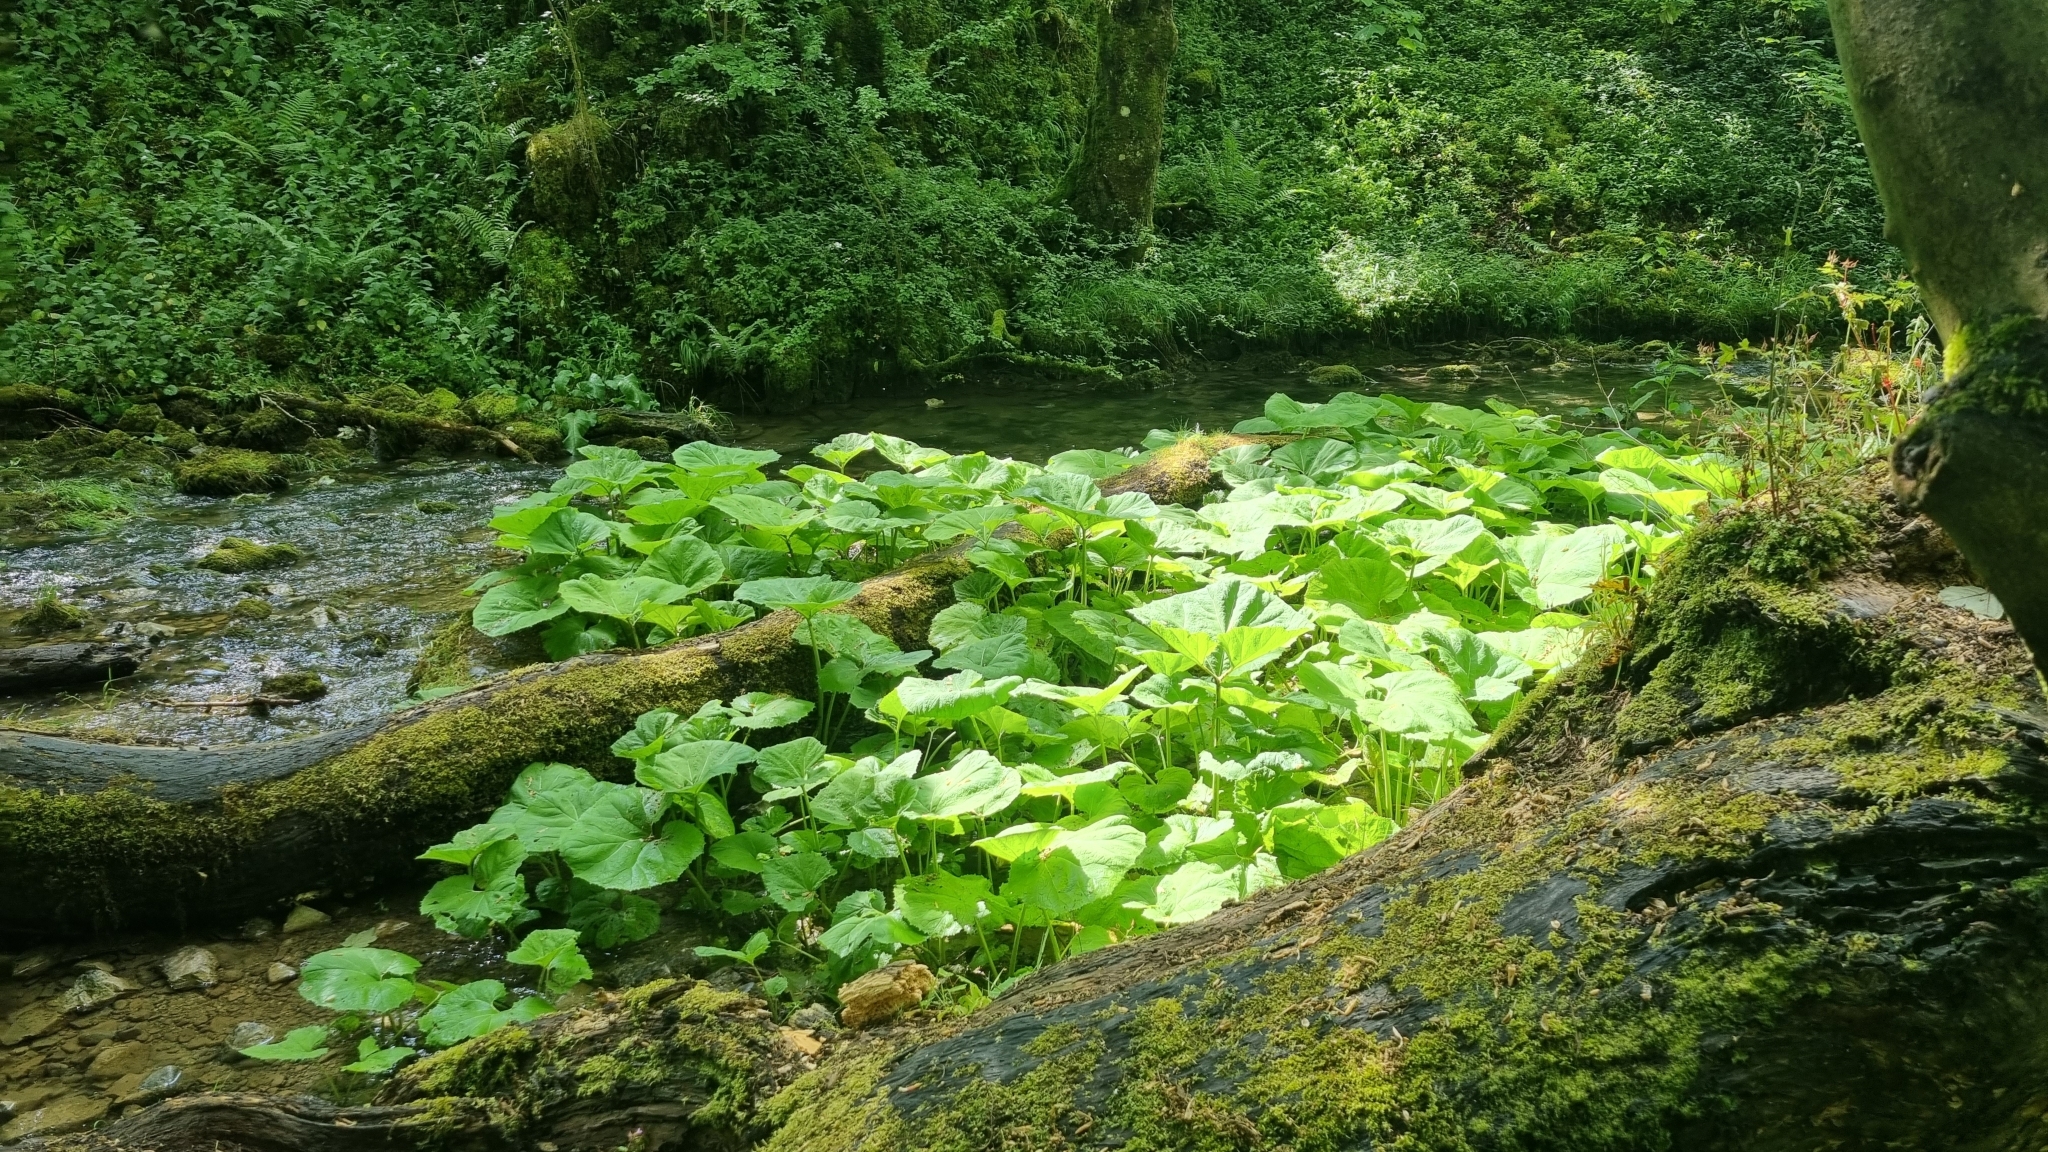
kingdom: Plantae
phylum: Tracheophyta
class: Magnoliopsida
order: Asterales
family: Asteraceae
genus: Petasites
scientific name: Petasites hybridus
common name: Butterbur
